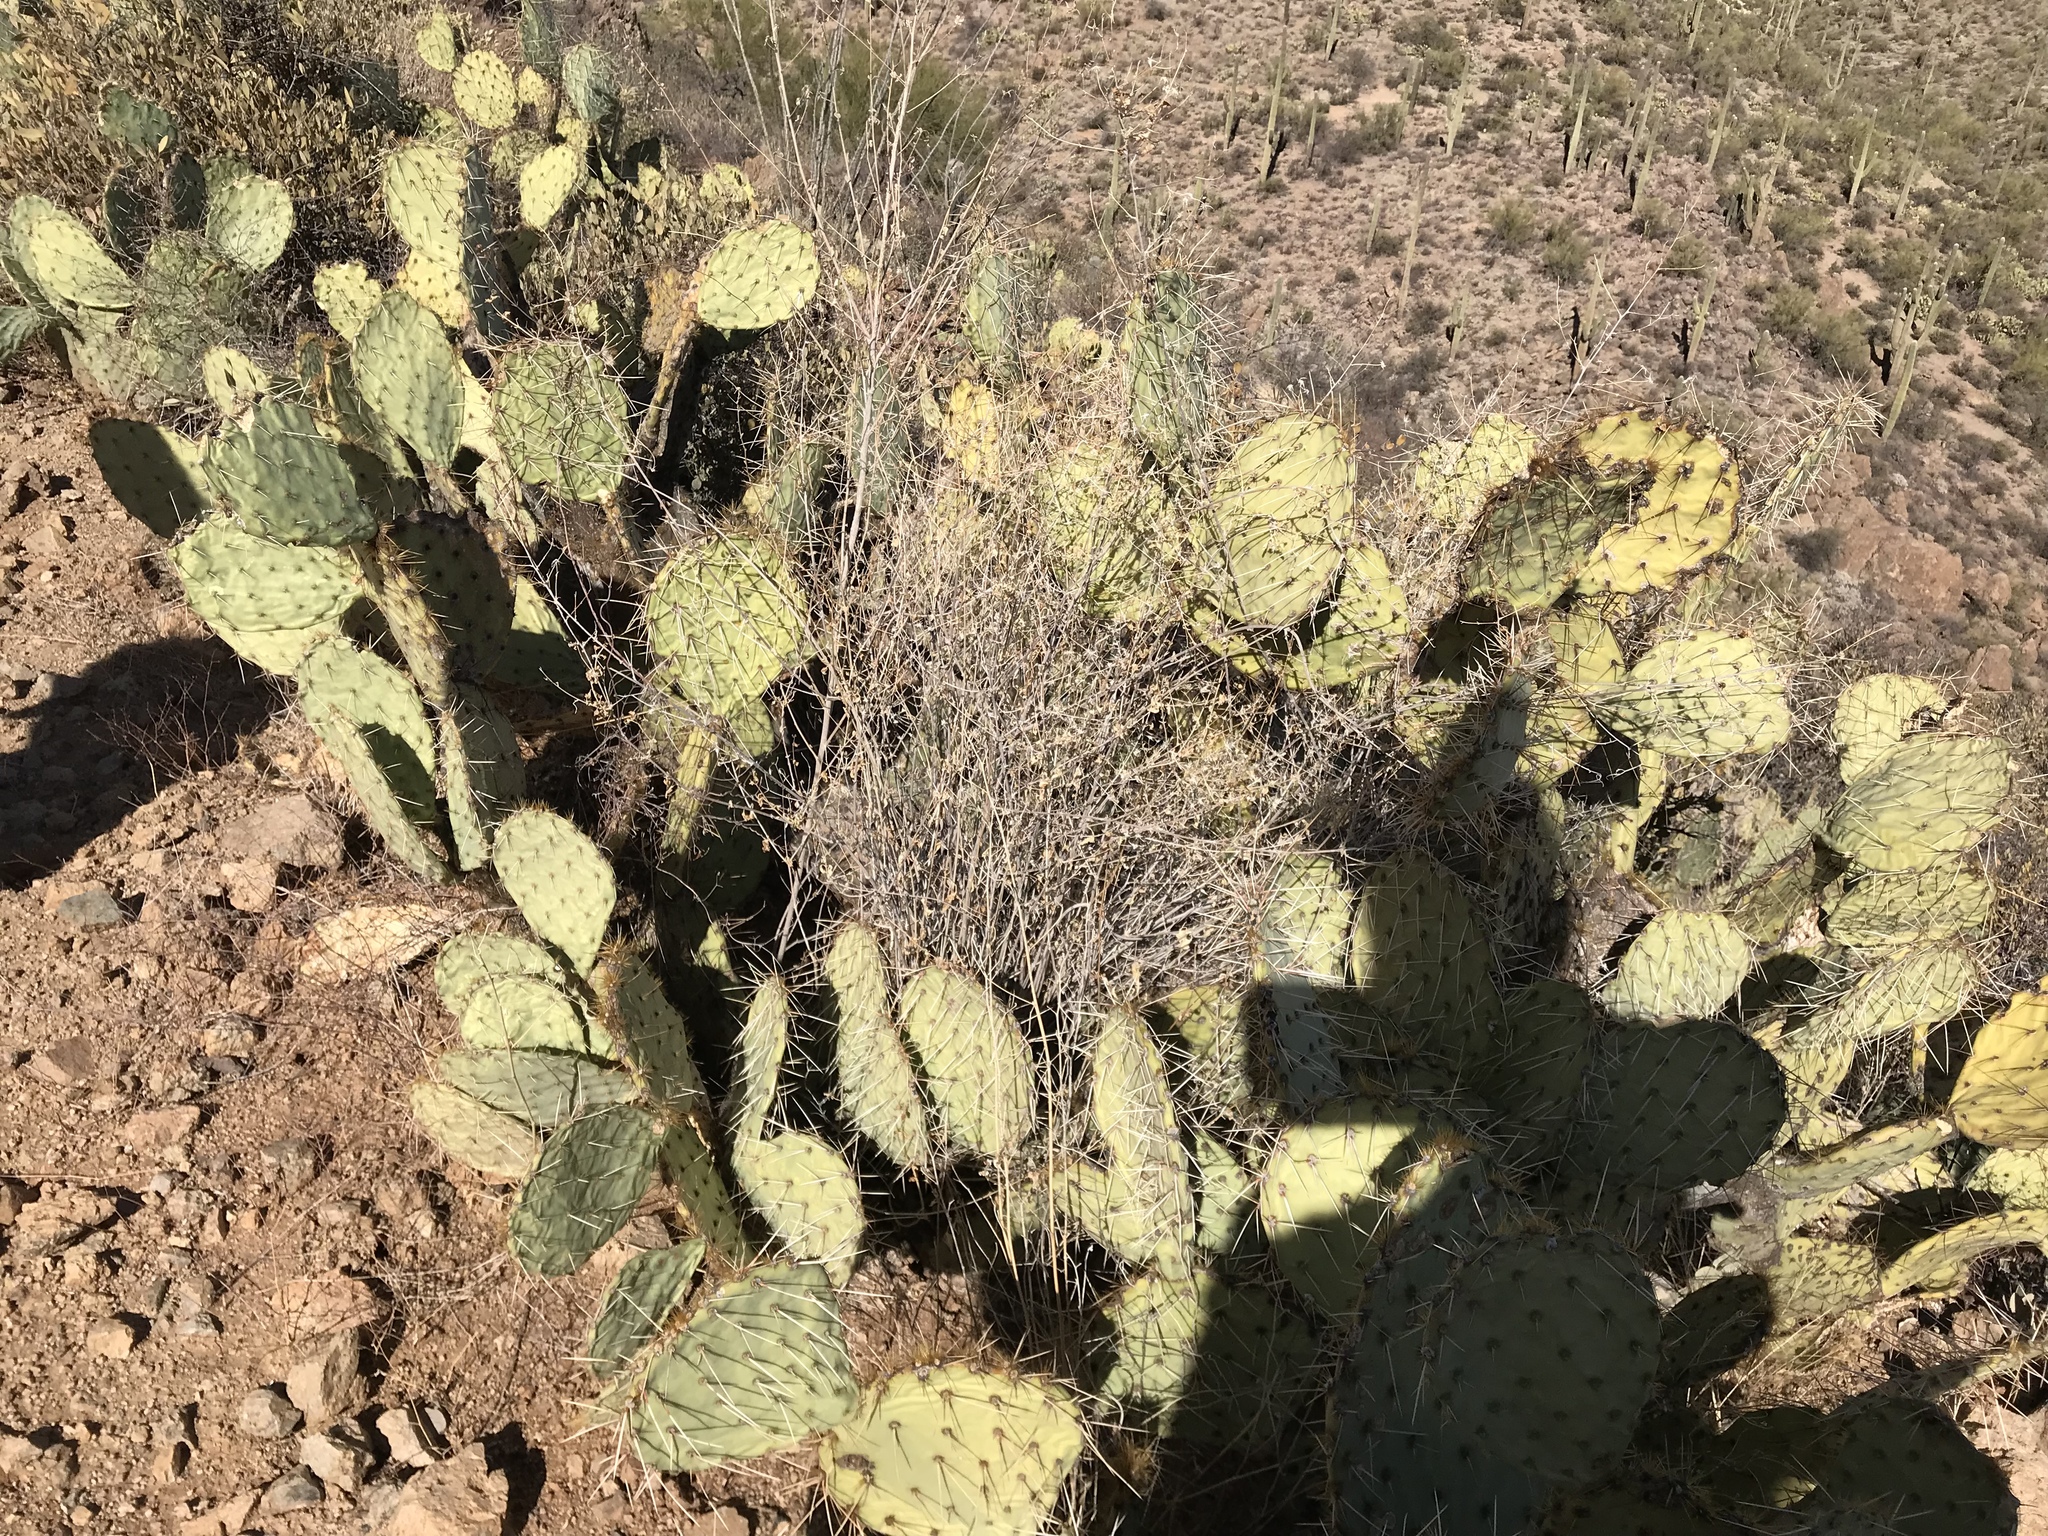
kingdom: Plantae
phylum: Tracheophyta
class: Magnoliopsida
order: Caryophyllales
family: Cactaceae
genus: Opuntia
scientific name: Opuntia engelmannii
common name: Cactus-apple
